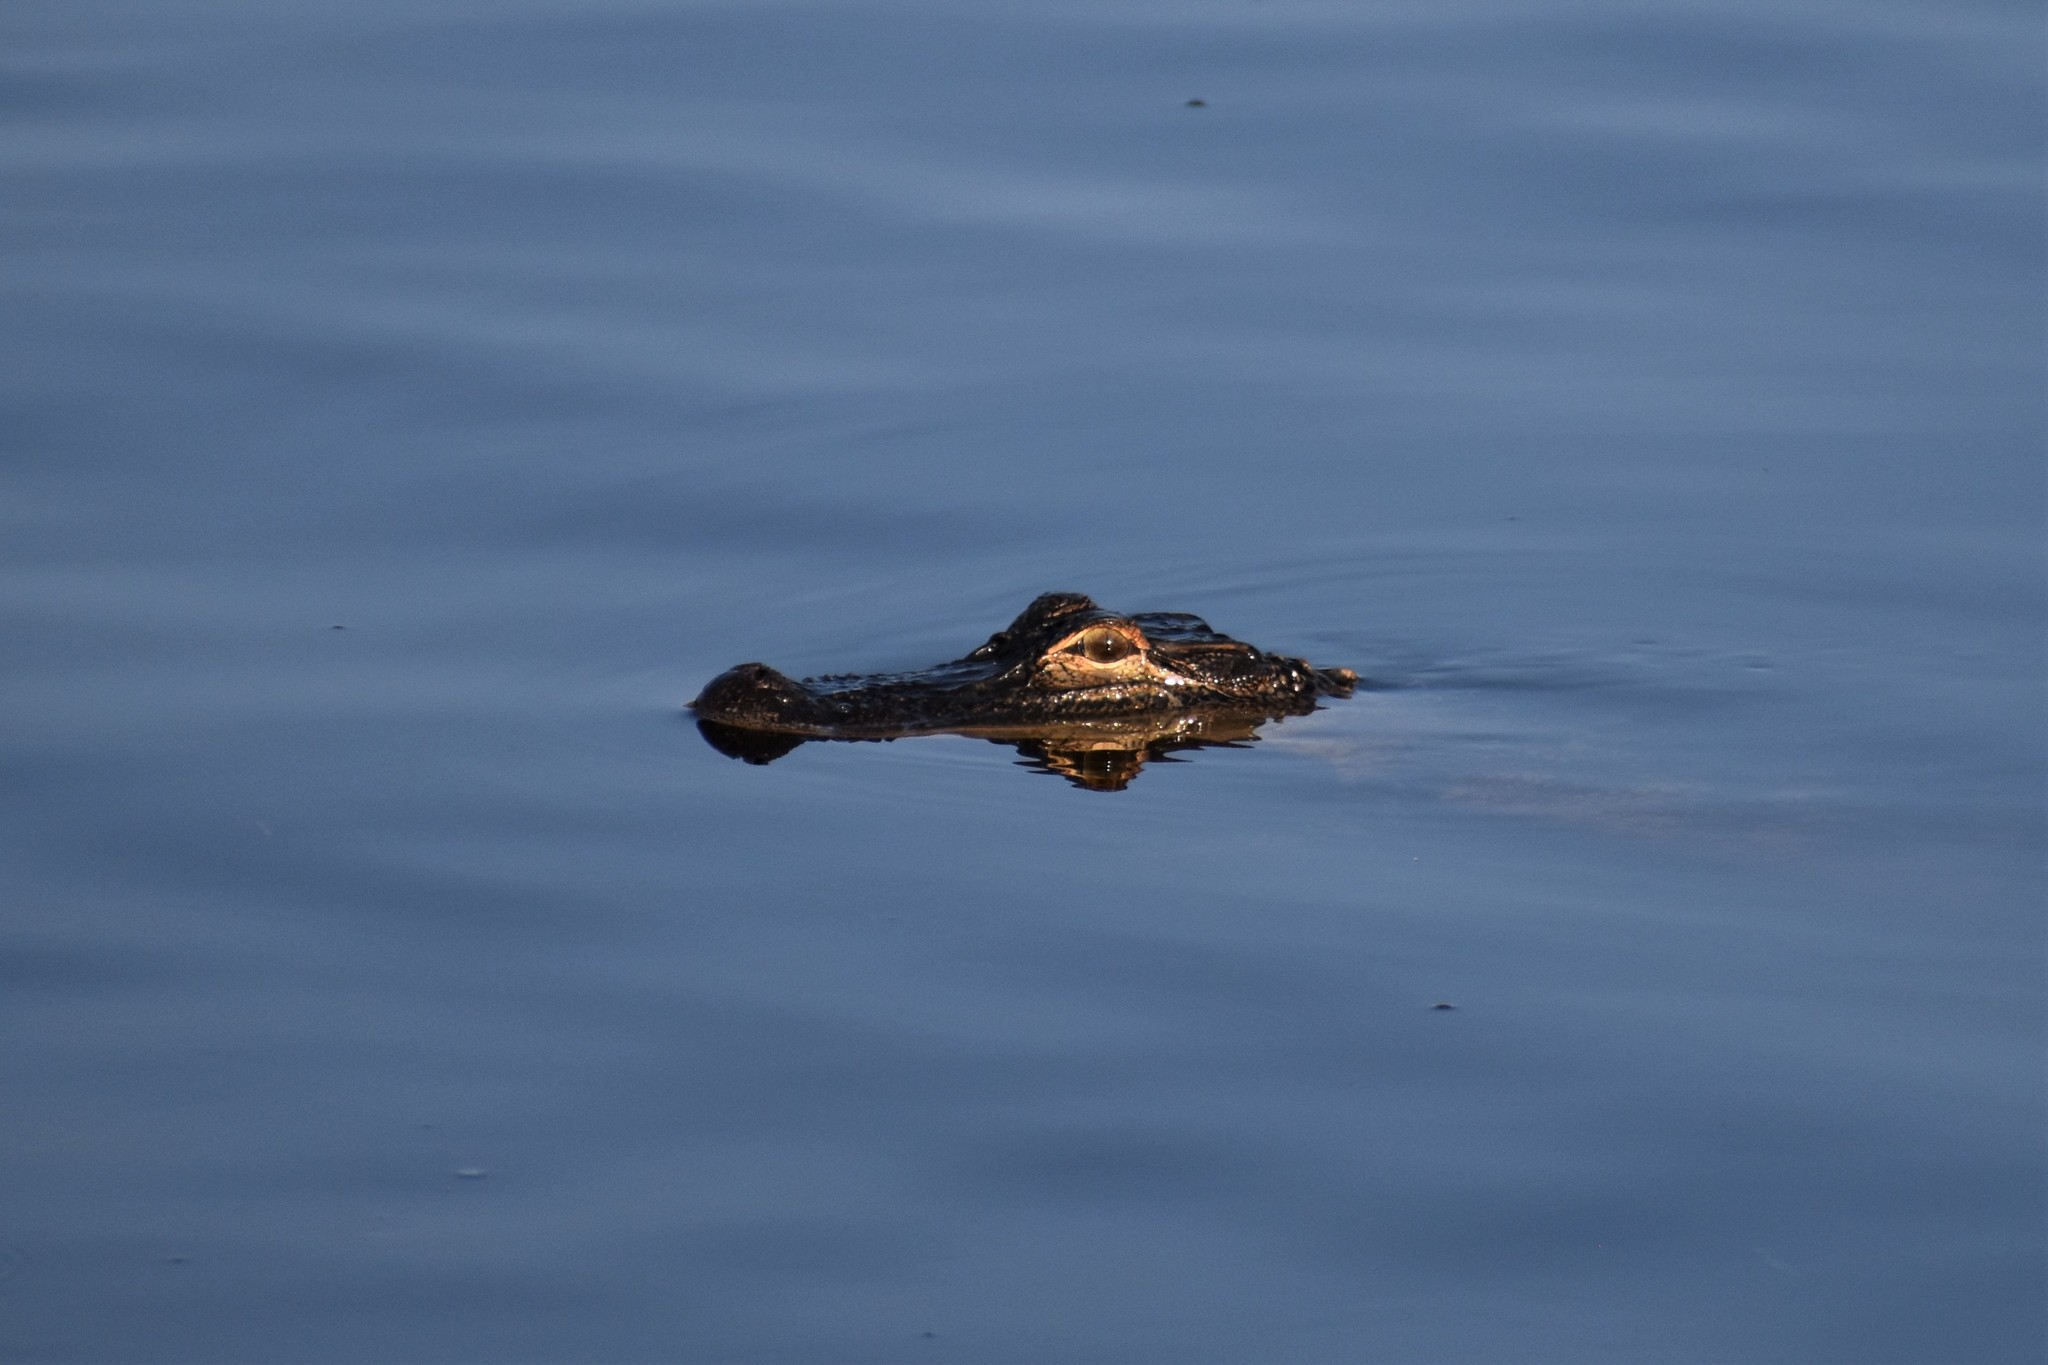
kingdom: Animalia
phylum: Chordata
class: Crocodylia
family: Alligatoridae
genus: Alligator
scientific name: Alligator mississippiensis
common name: American alligator
